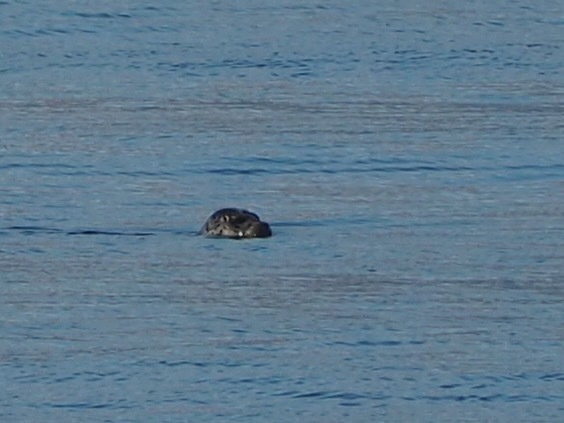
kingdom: Animalia
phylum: Chordata
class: Mammalia
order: Carnivora
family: Phocidae
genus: Phoca
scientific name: Phoca vitulina
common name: Harbor seal
